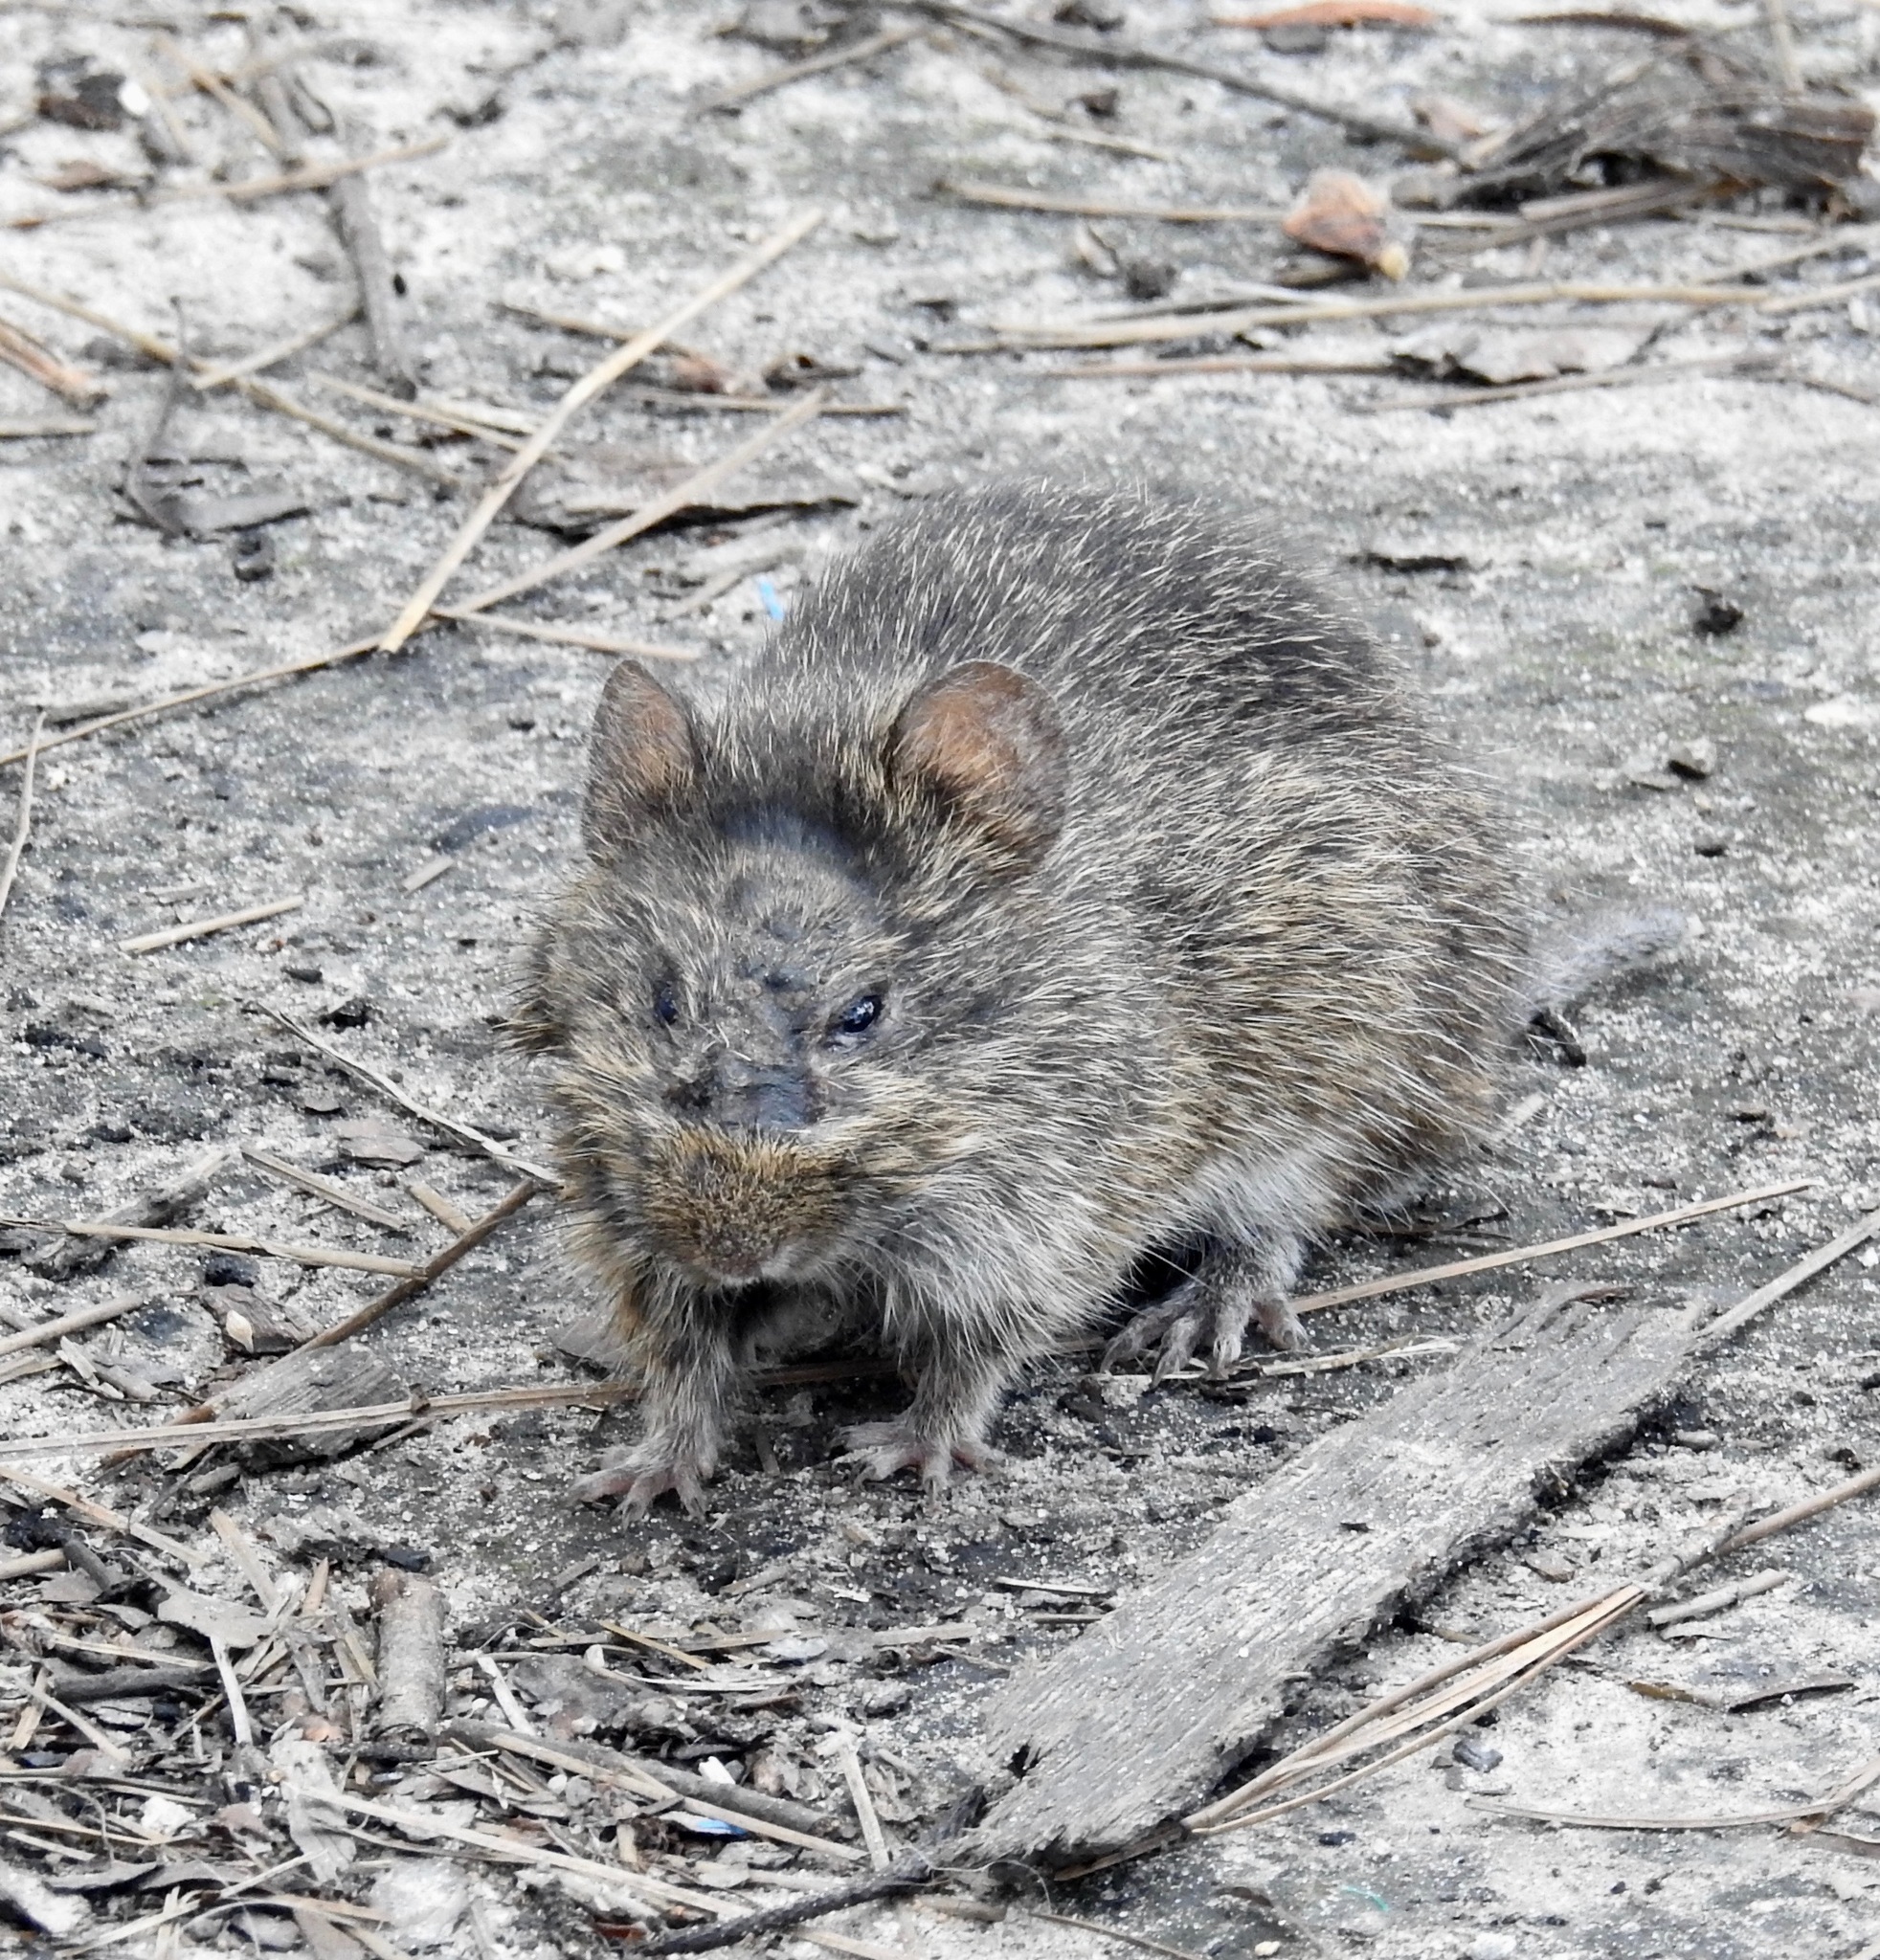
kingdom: Animalia
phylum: Chordata
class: Mammalia
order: Rodentia
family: Cricetidae
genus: Sigmodon
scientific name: Sigmodon hispidus
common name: Hispid cotton rat
